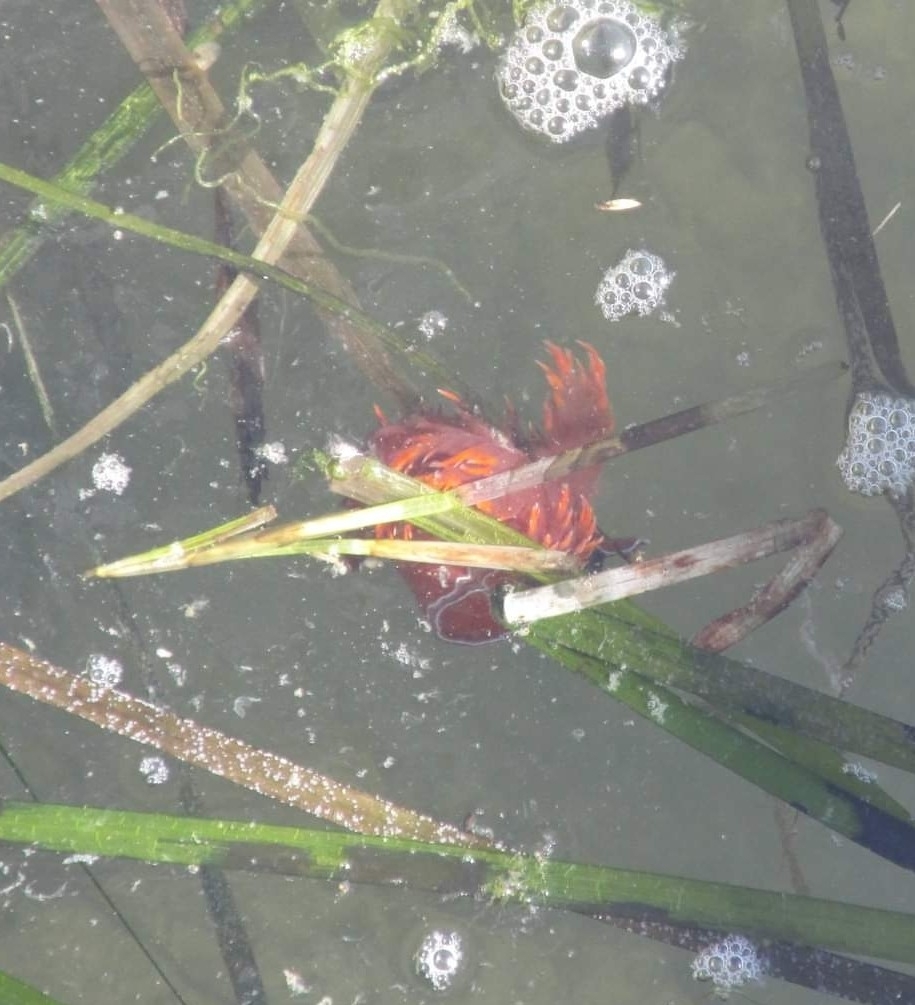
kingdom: Animalia
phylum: Mollusca
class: Gastropoda
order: Nudibranchia
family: Dendronotidae
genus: Dendronotus
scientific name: Dendronotus iris
